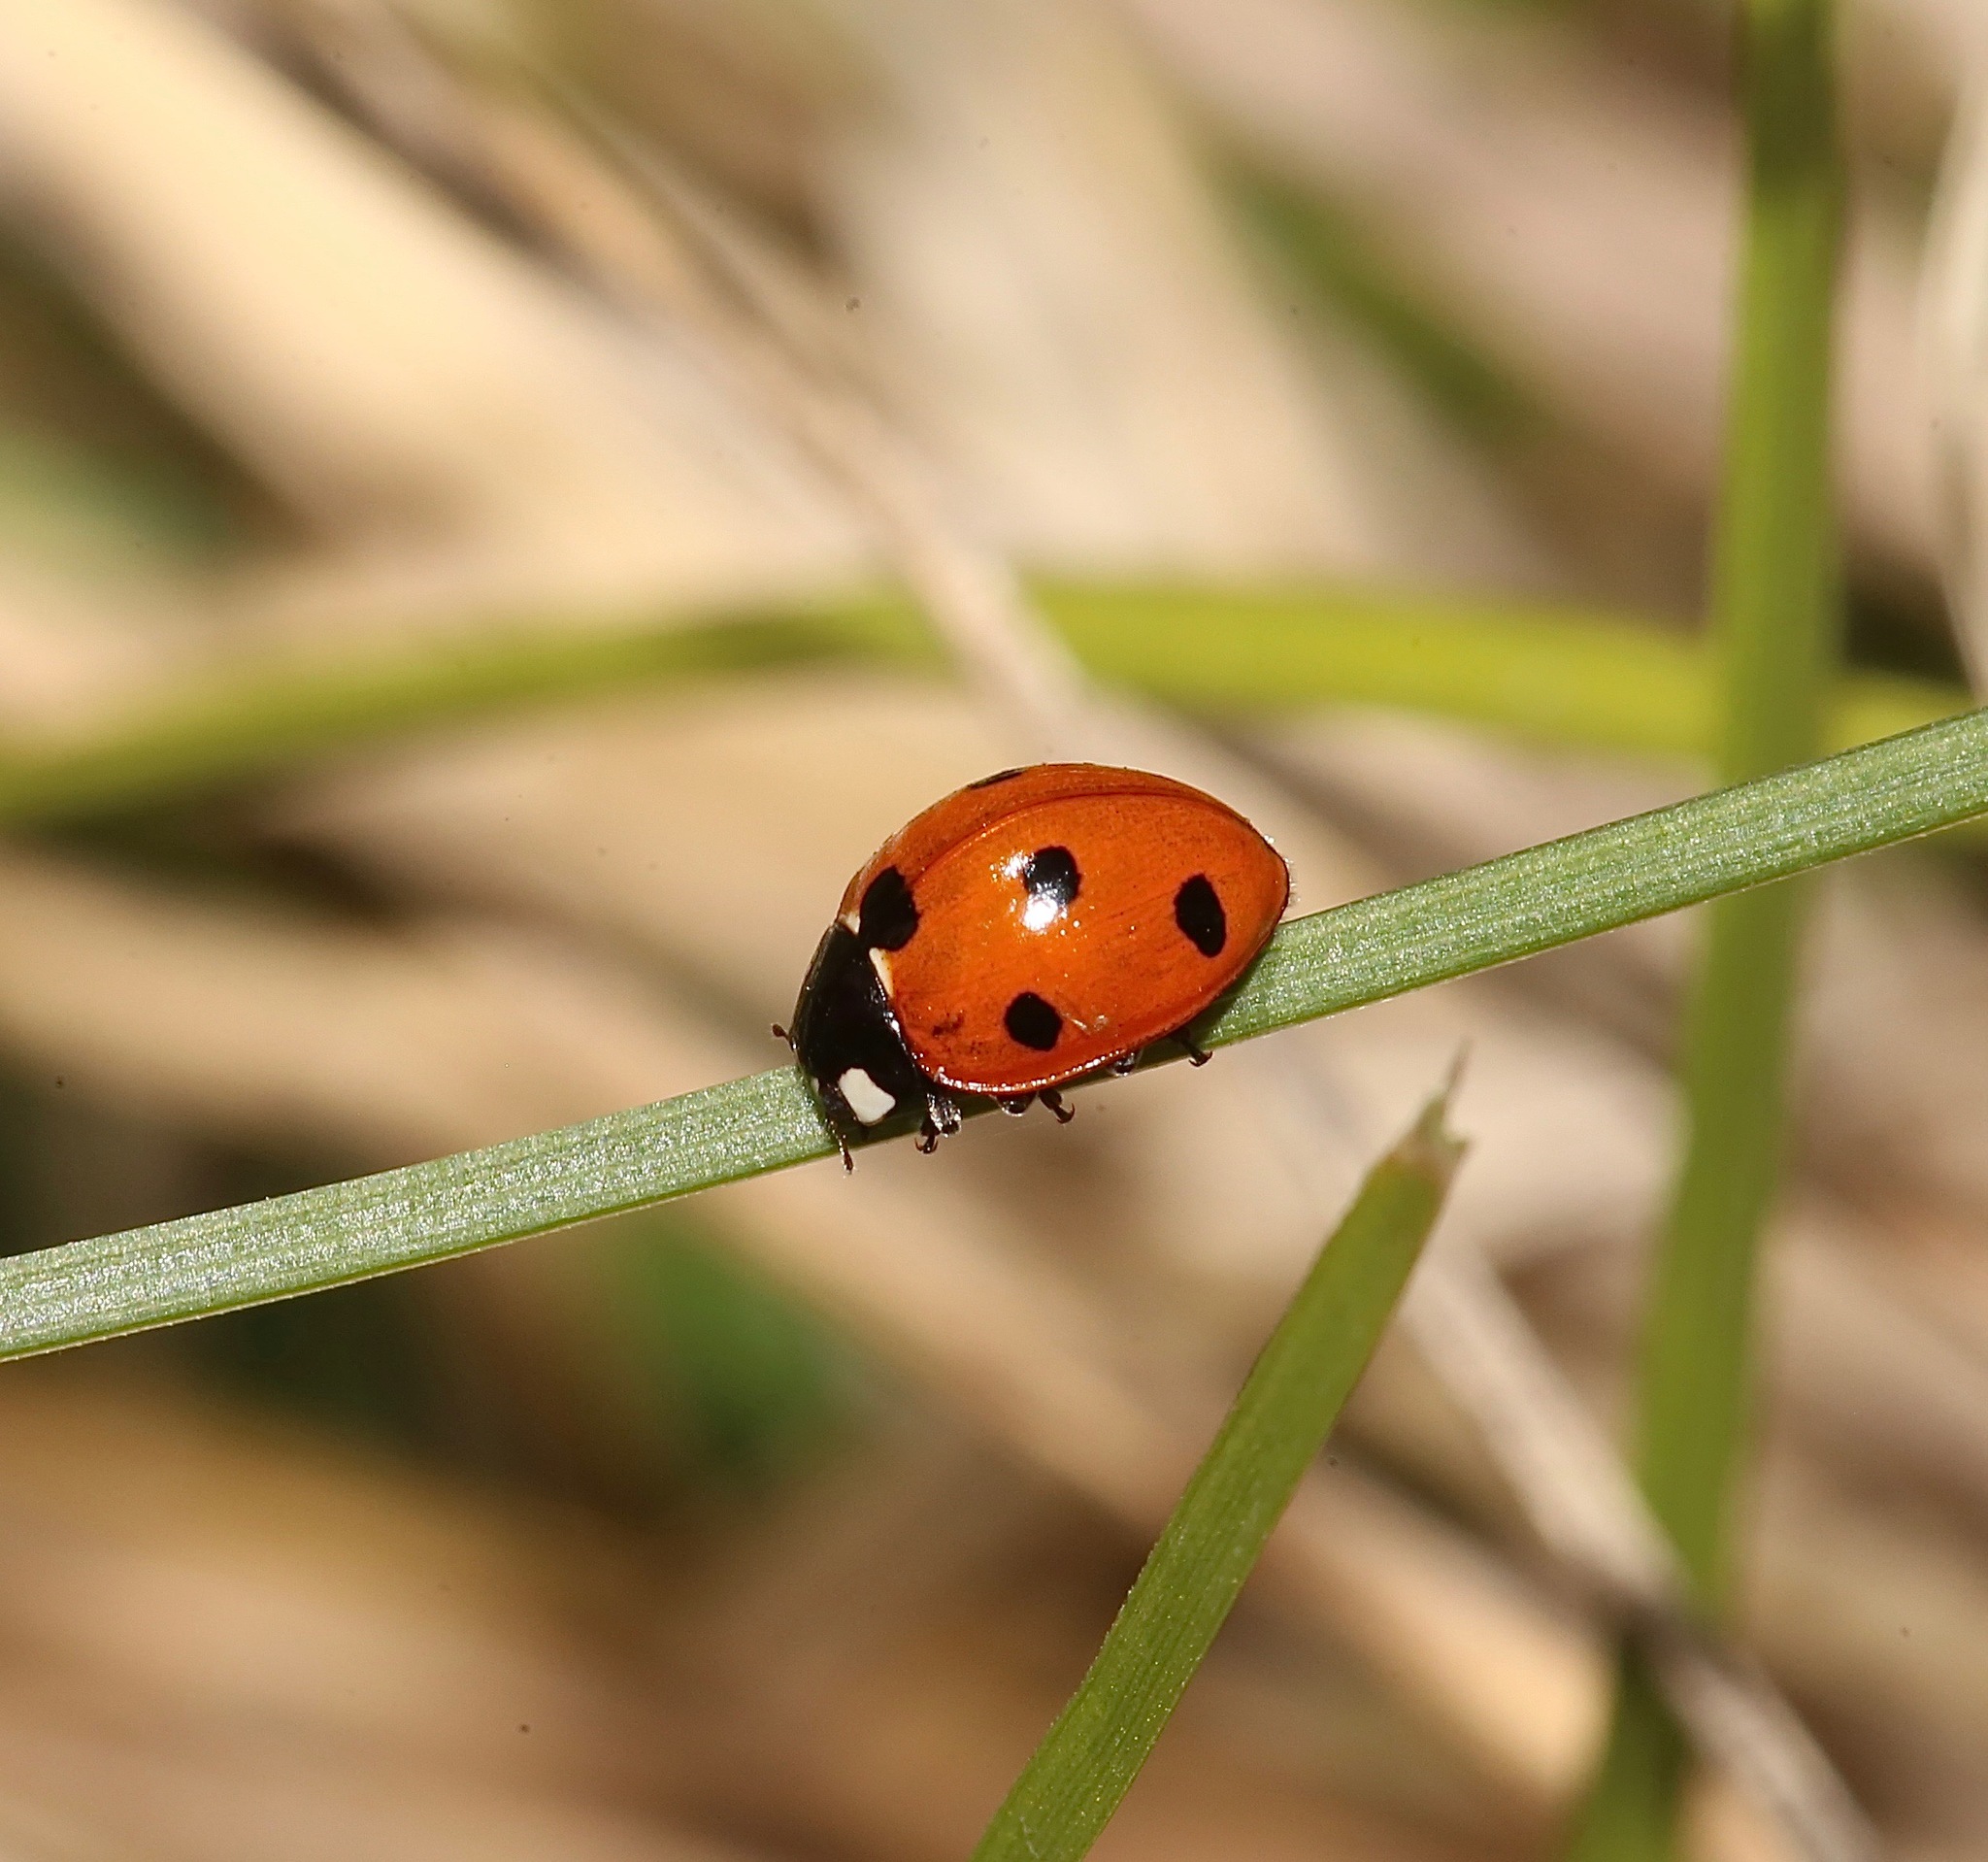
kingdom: Animalia
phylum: Arthropoda
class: Insecta
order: Coleoptera
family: Coccinellidae
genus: Coccinella
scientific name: Coccinella septempunctata
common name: Sevenspotted lady beetle
